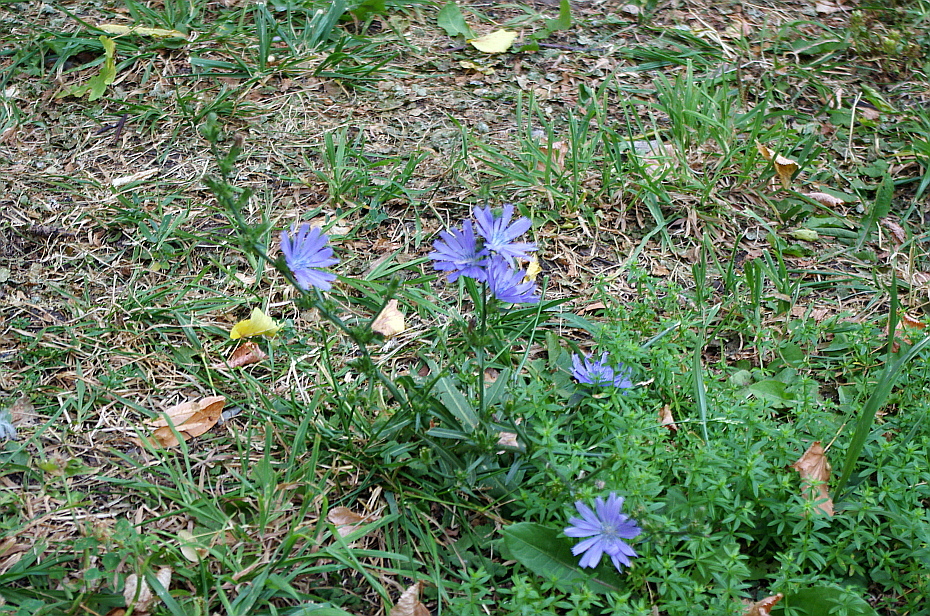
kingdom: Plantae
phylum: Tracheophyta
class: Magnoliopsida
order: Asterales
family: Asteraceae
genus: Cichorium
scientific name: Cichorium intybus
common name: Chicory
